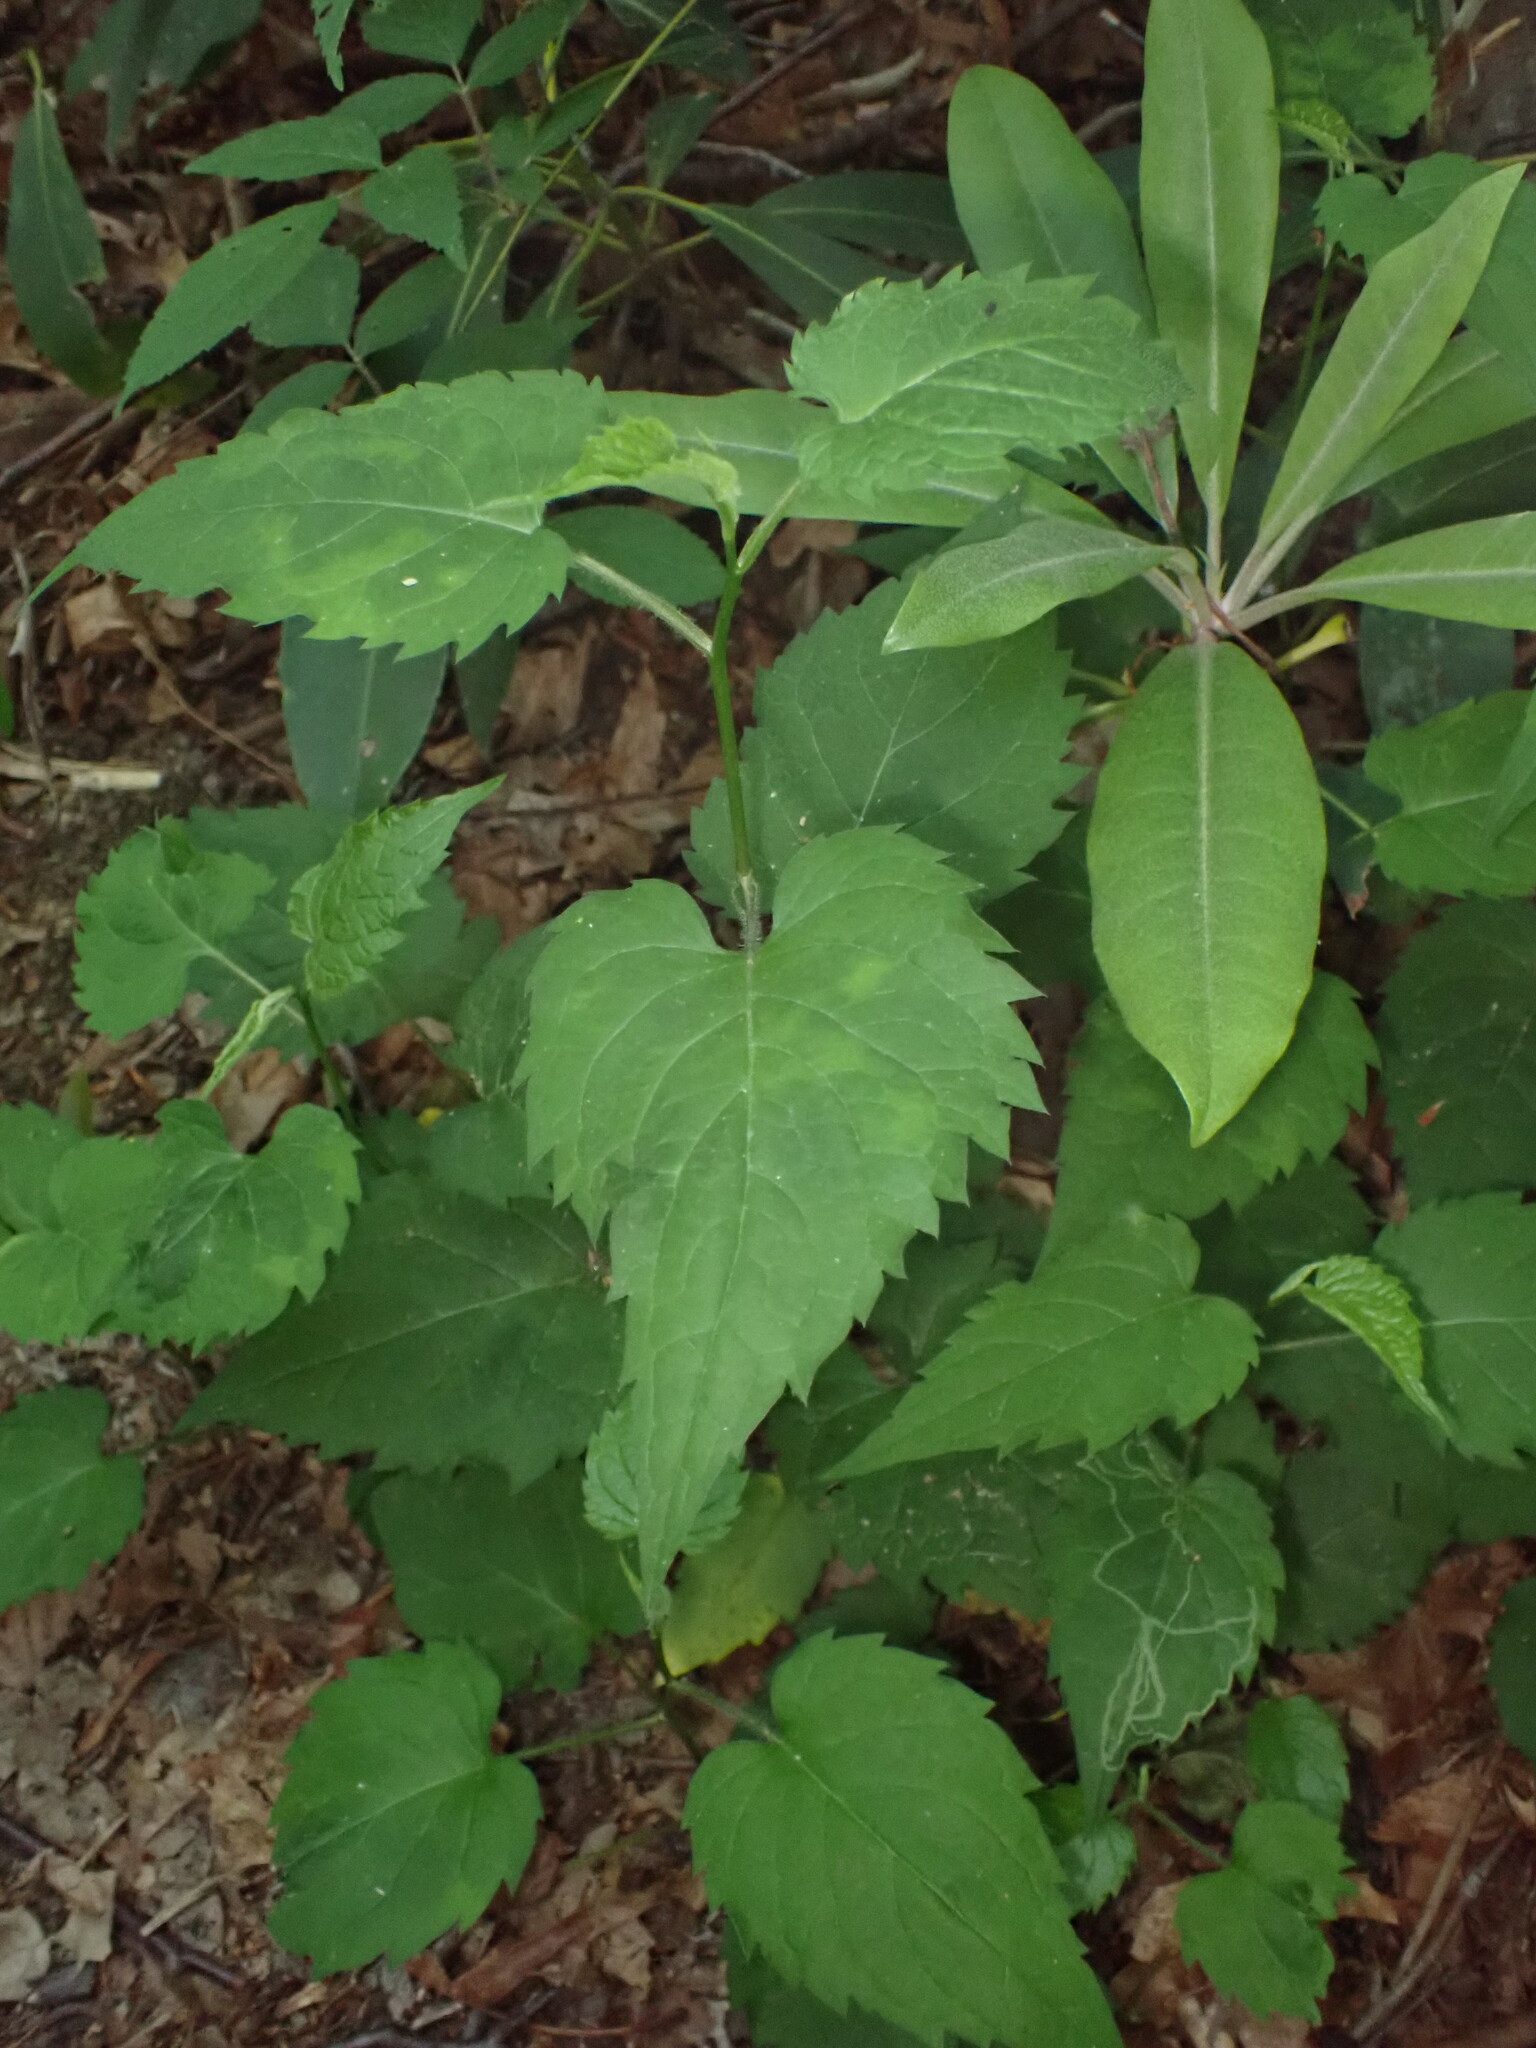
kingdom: Animalia
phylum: Arthropoda
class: Insecta
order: Diptera
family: Agromyzidae
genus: Ophiomyia
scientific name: Ophiomyia maura
